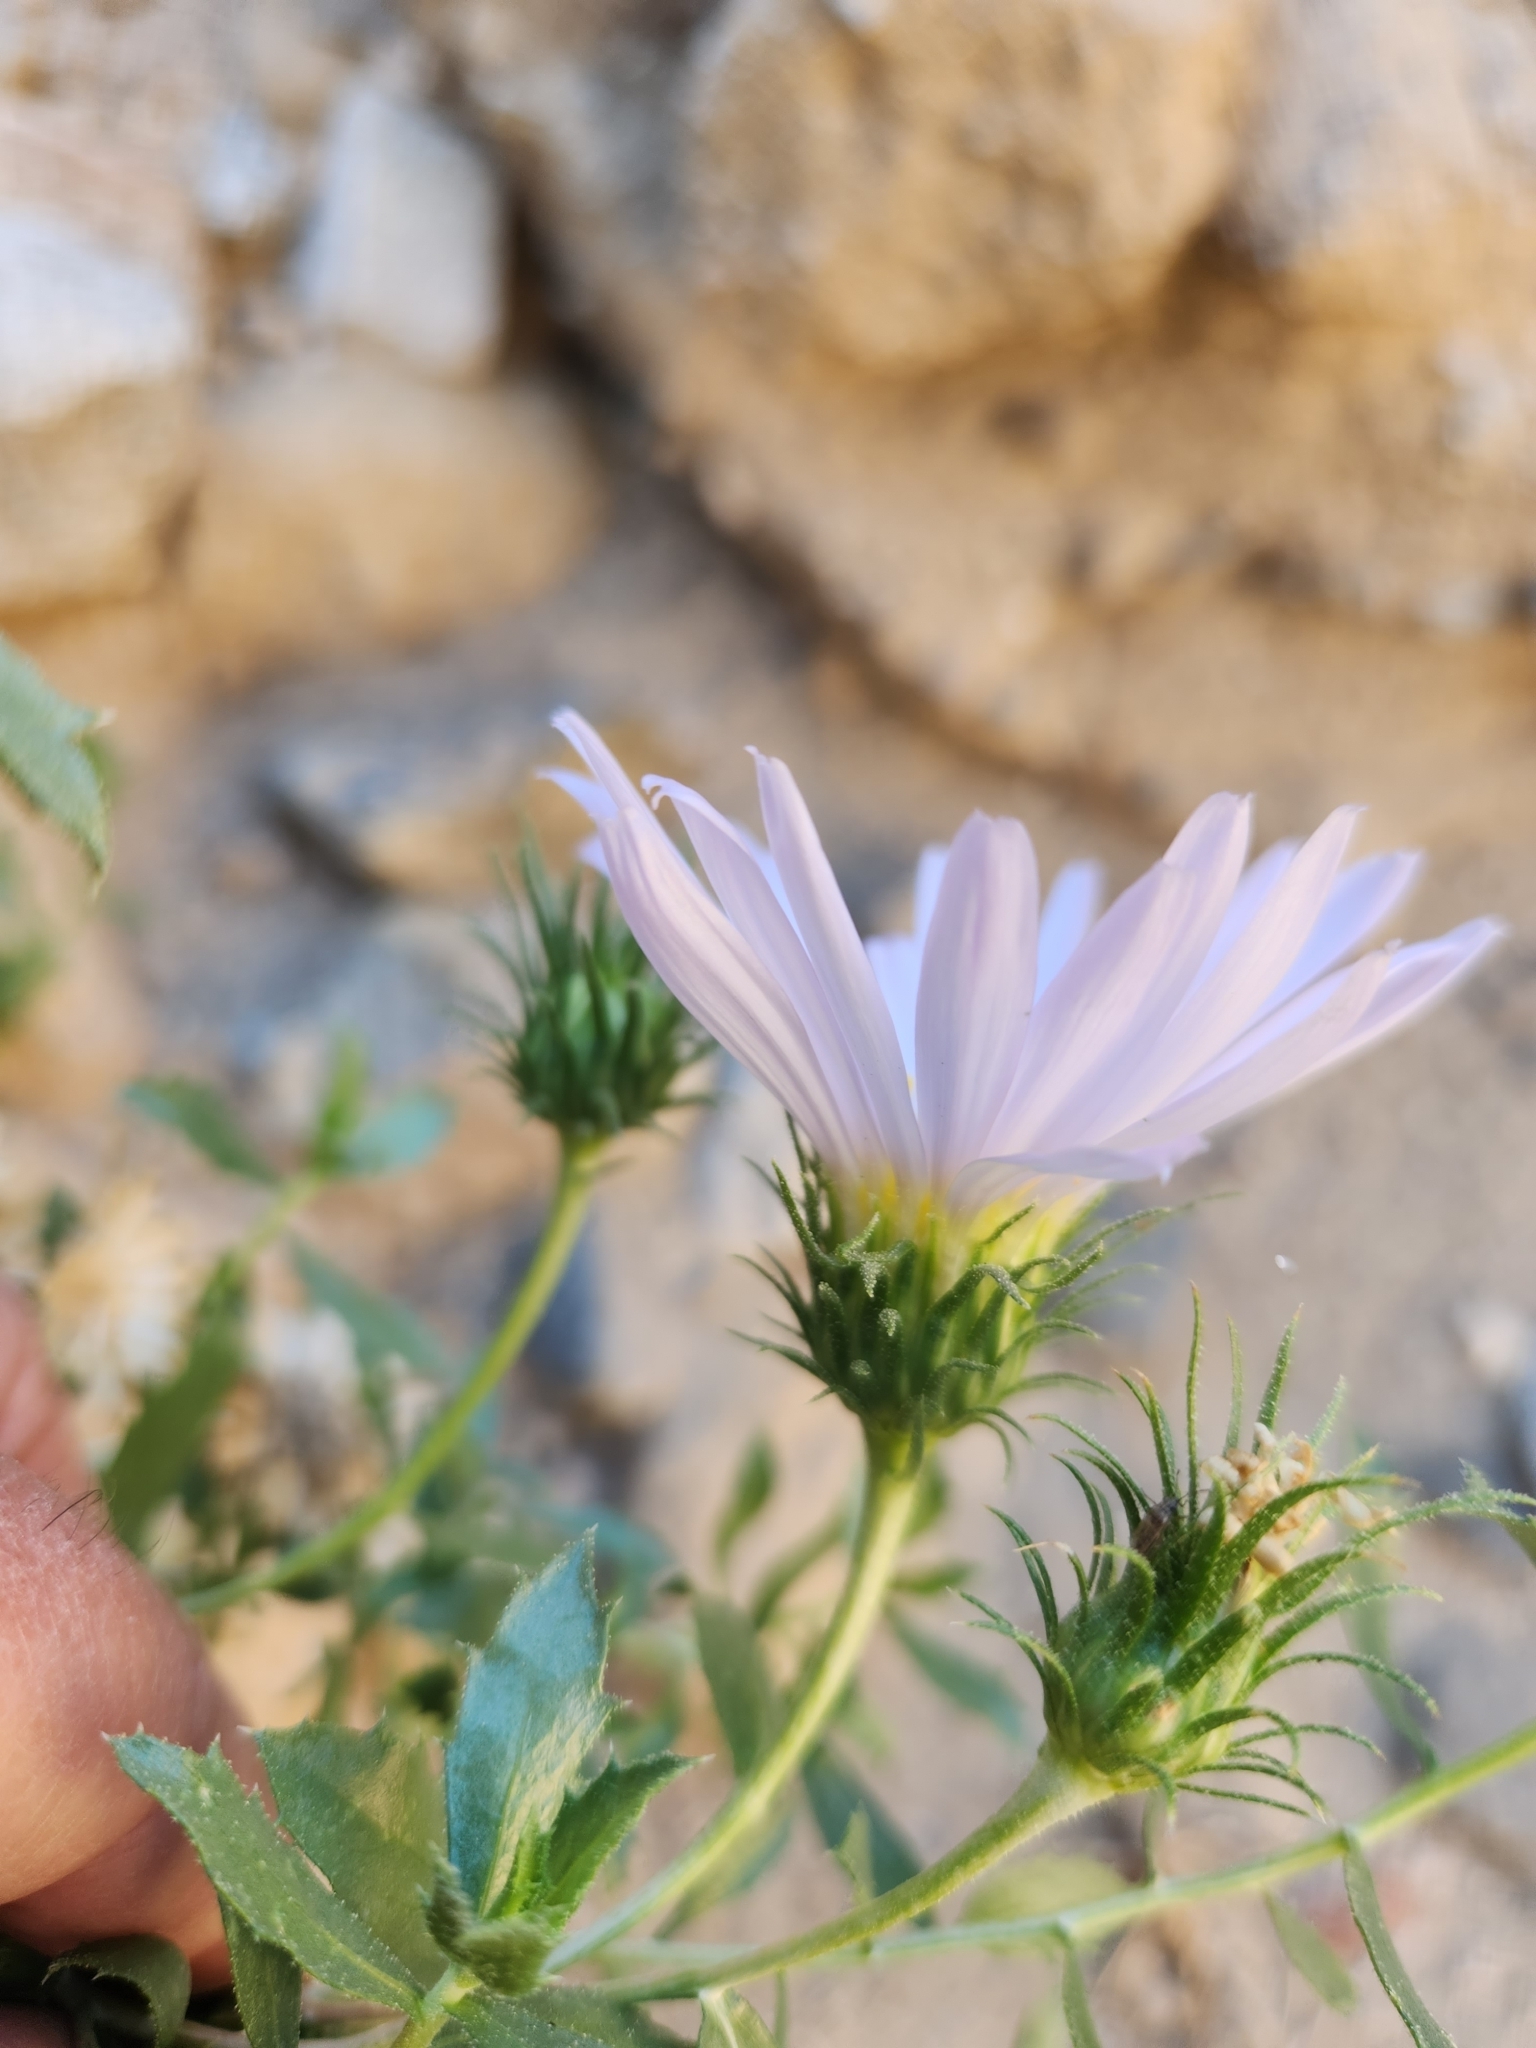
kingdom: Plantae
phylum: Tracheophyta
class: Magnoliopsida
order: Asterales
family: Asteraceae
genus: Xylorhiza
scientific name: Xylorhiza cognata
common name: Mecca woody-aster
